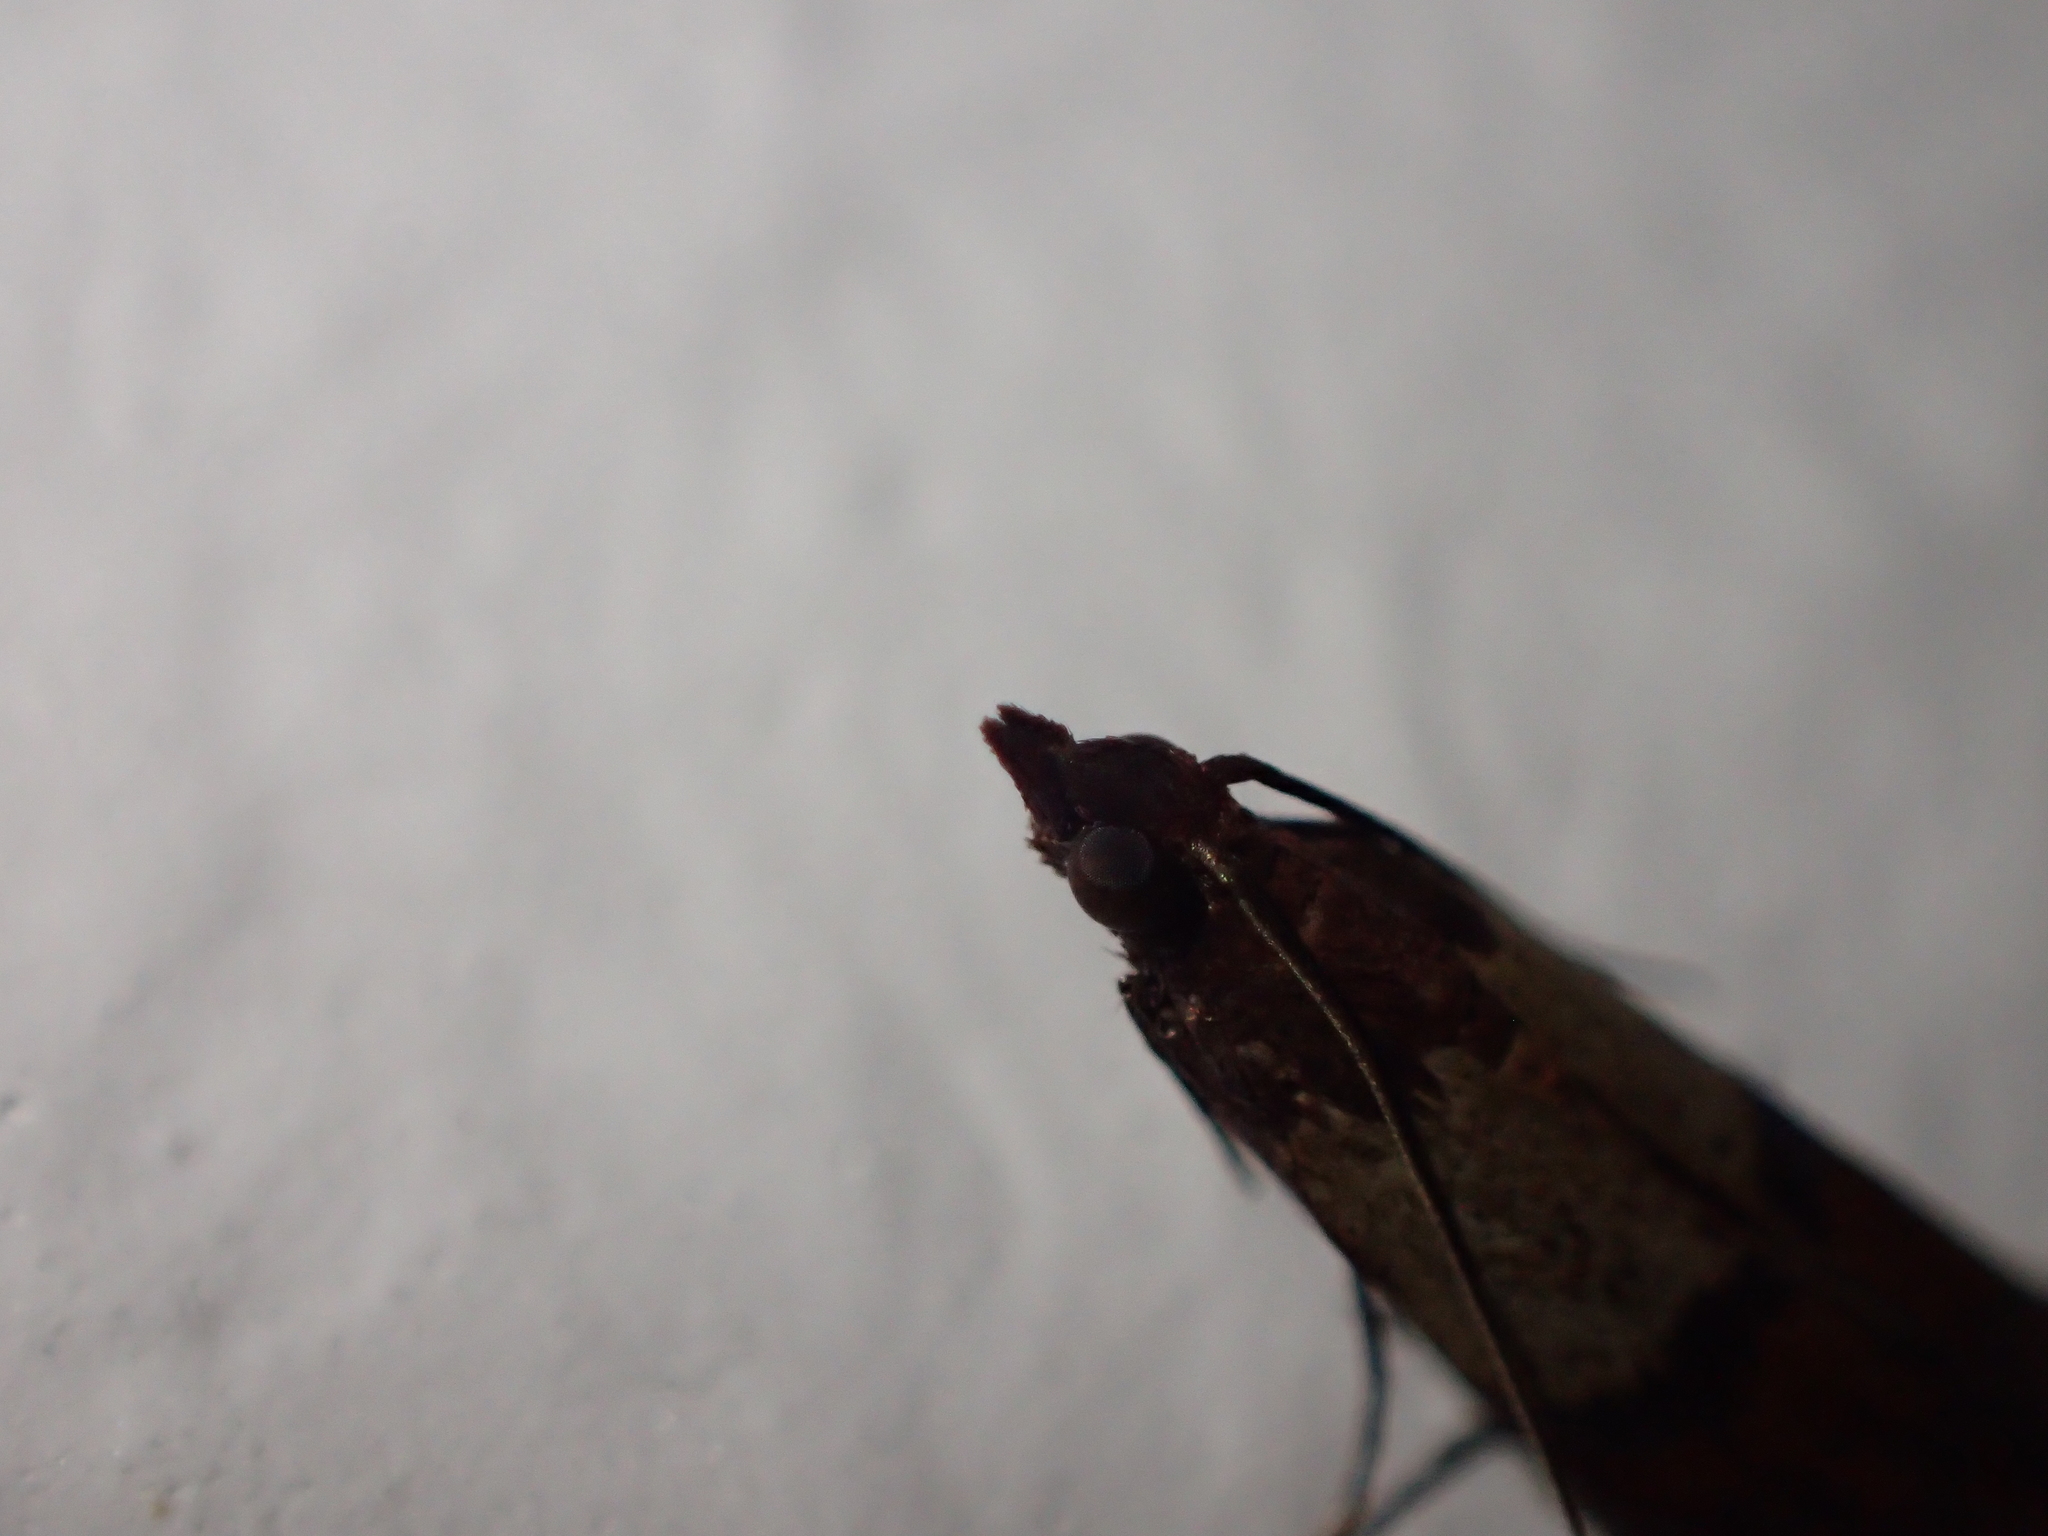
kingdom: Animalia
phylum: Arthropoda
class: Insecta
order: Lepidoptera
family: Pyralidae
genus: Plodia
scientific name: Plodia interpunctella
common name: Indian meal moth
